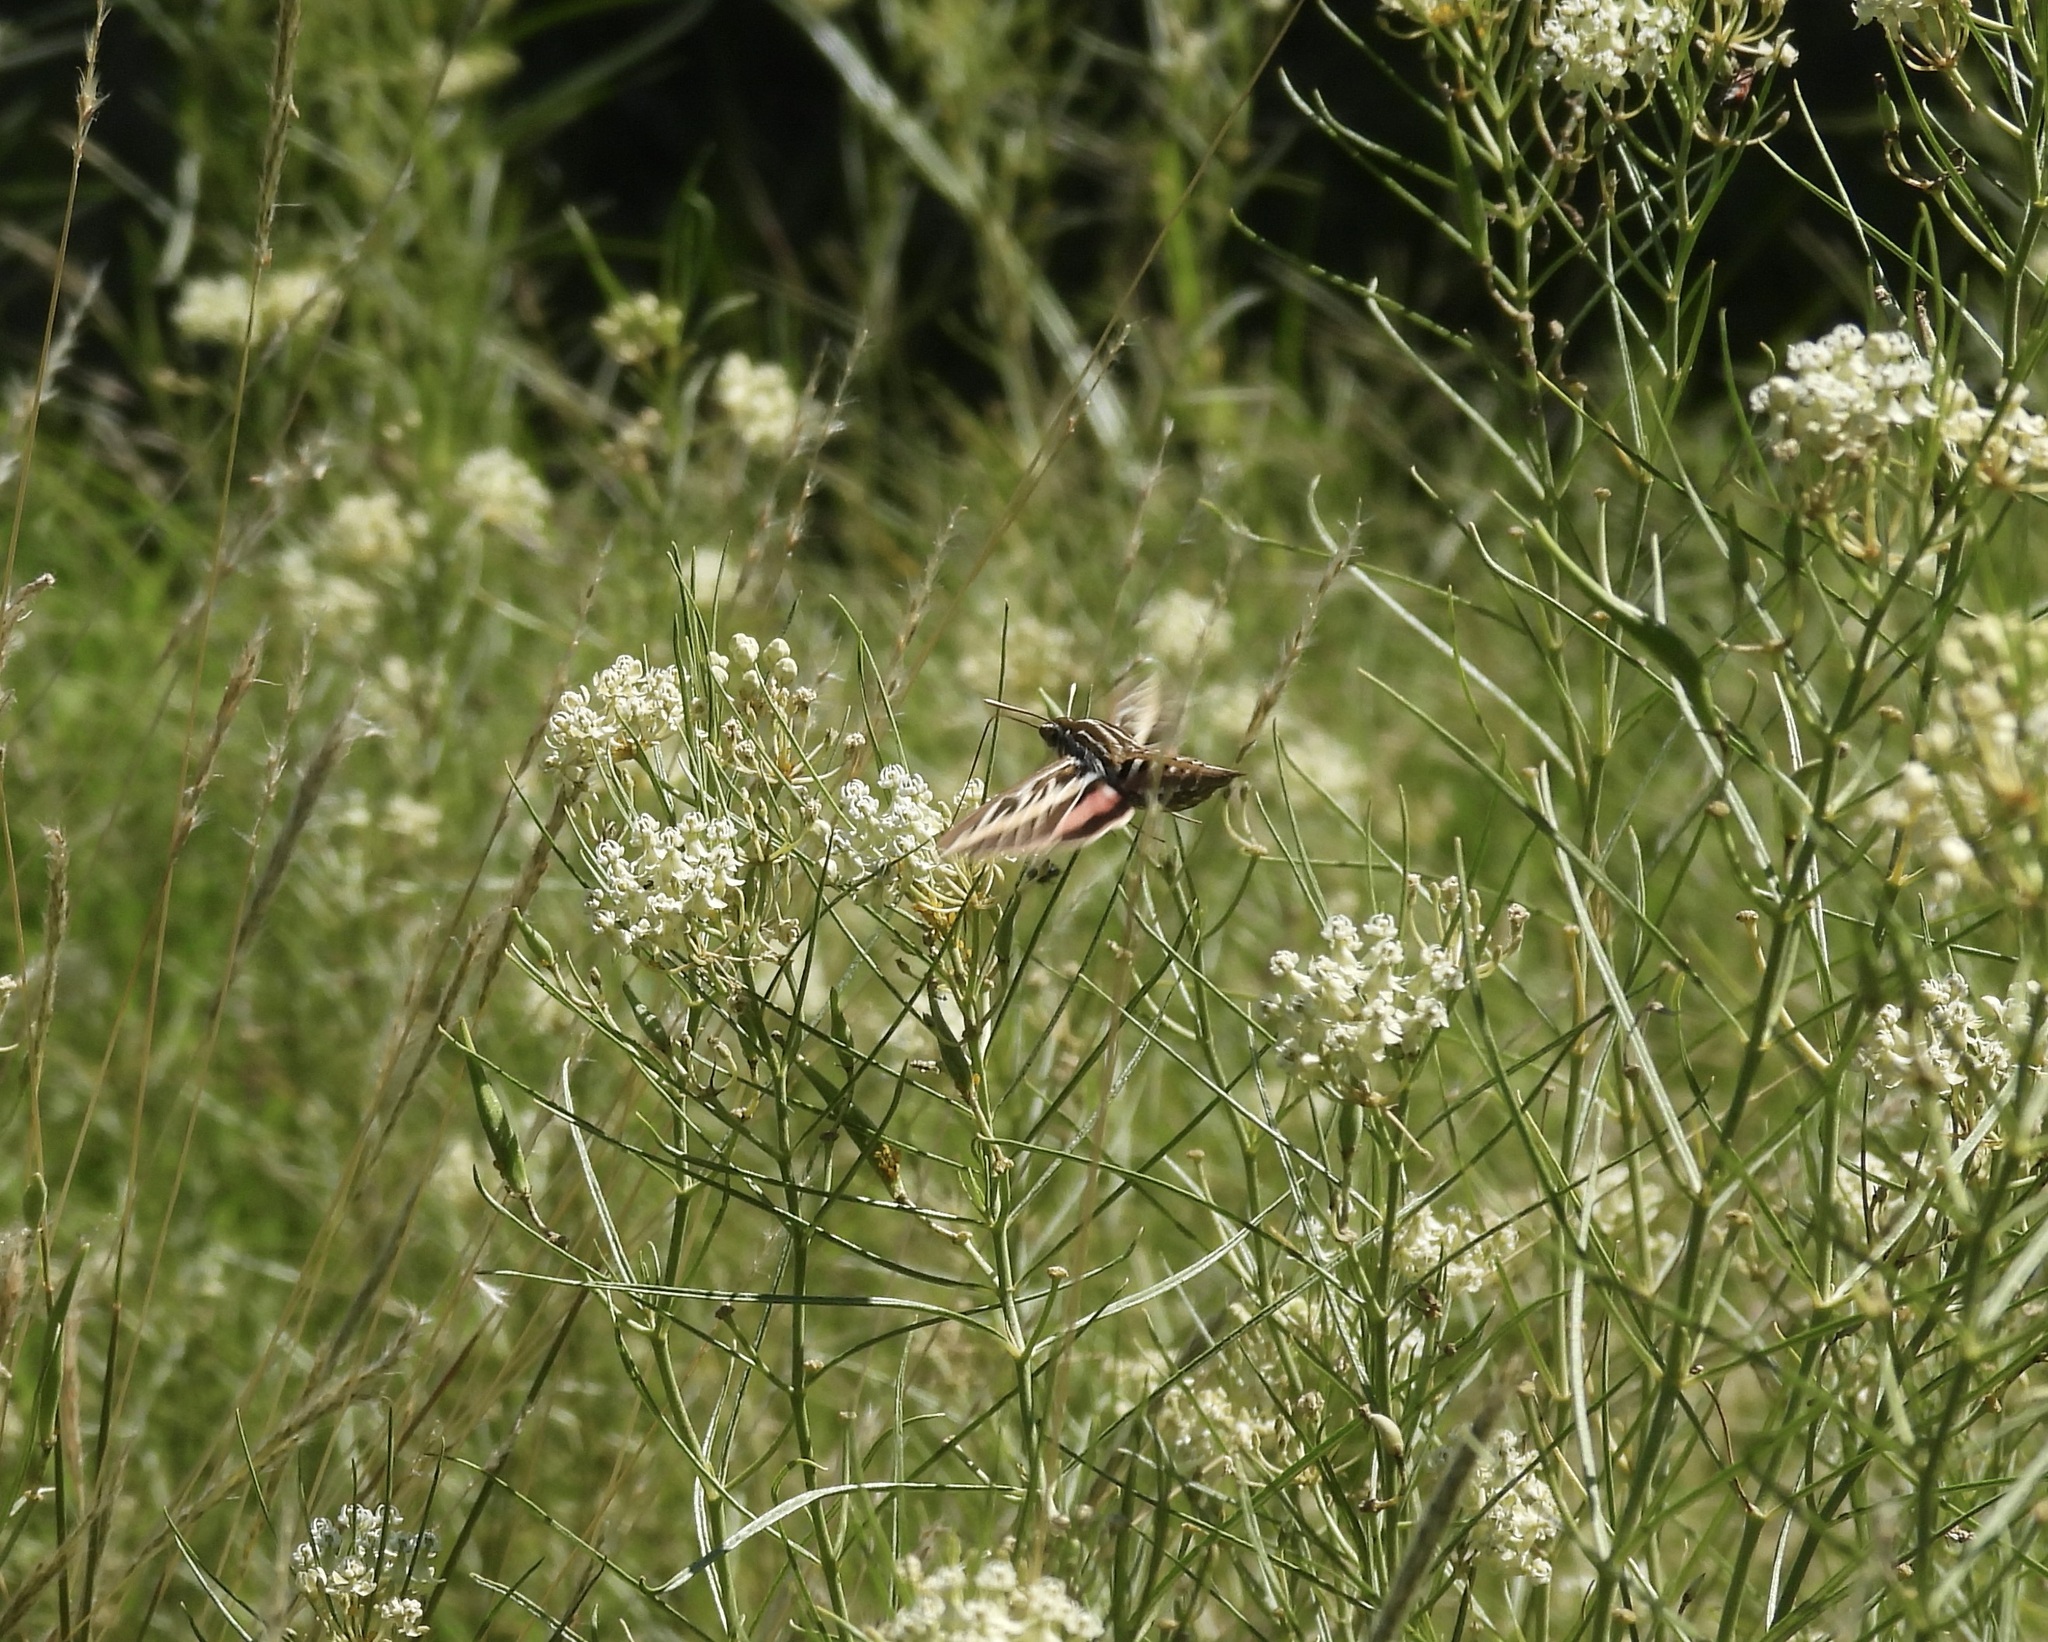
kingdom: Animalia
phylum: Arthropoda
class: Insecta
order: Lepidoptera
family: Sphingidae
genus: Hyles
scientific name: Hyles lineata
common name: White-lined sphinx
